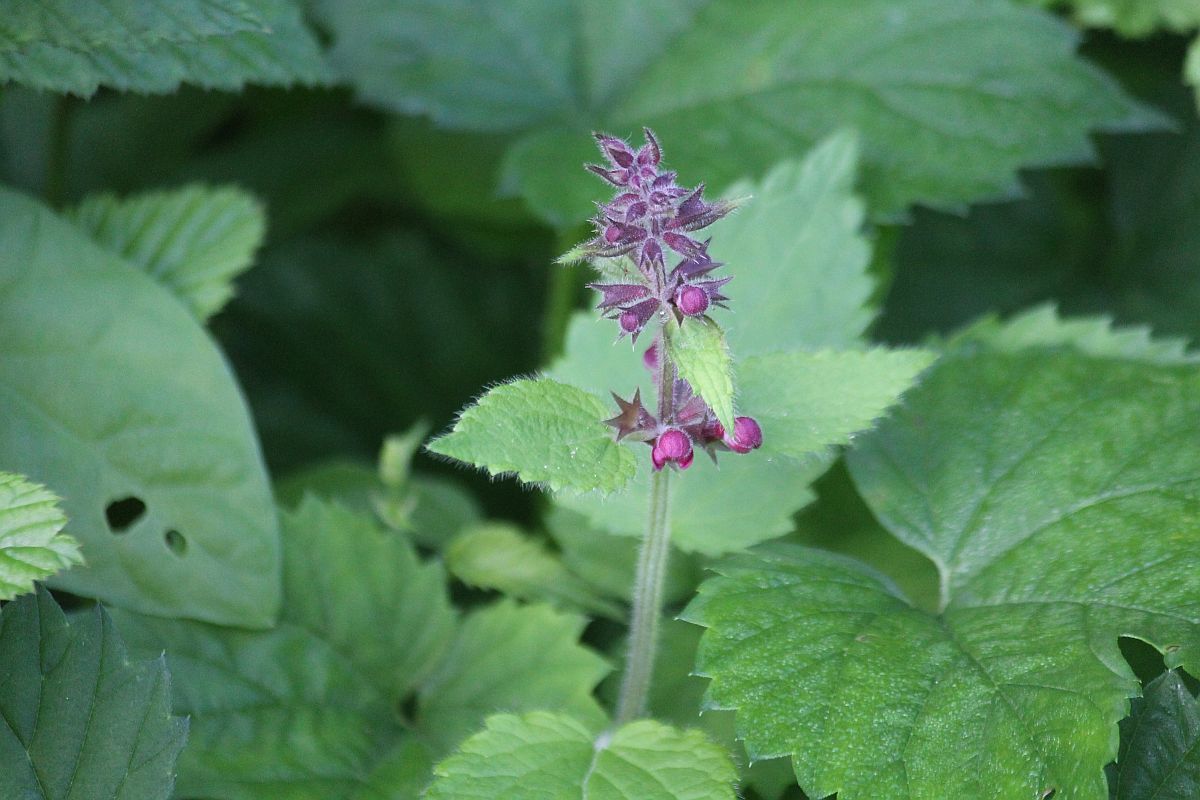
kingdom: Plantae
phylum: Tracheophyta
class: Magnoliopsida
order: Lamiales
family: Lamiaceae
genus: Stachys
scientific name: Stachys sylvatica
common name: Hedge woundwort
